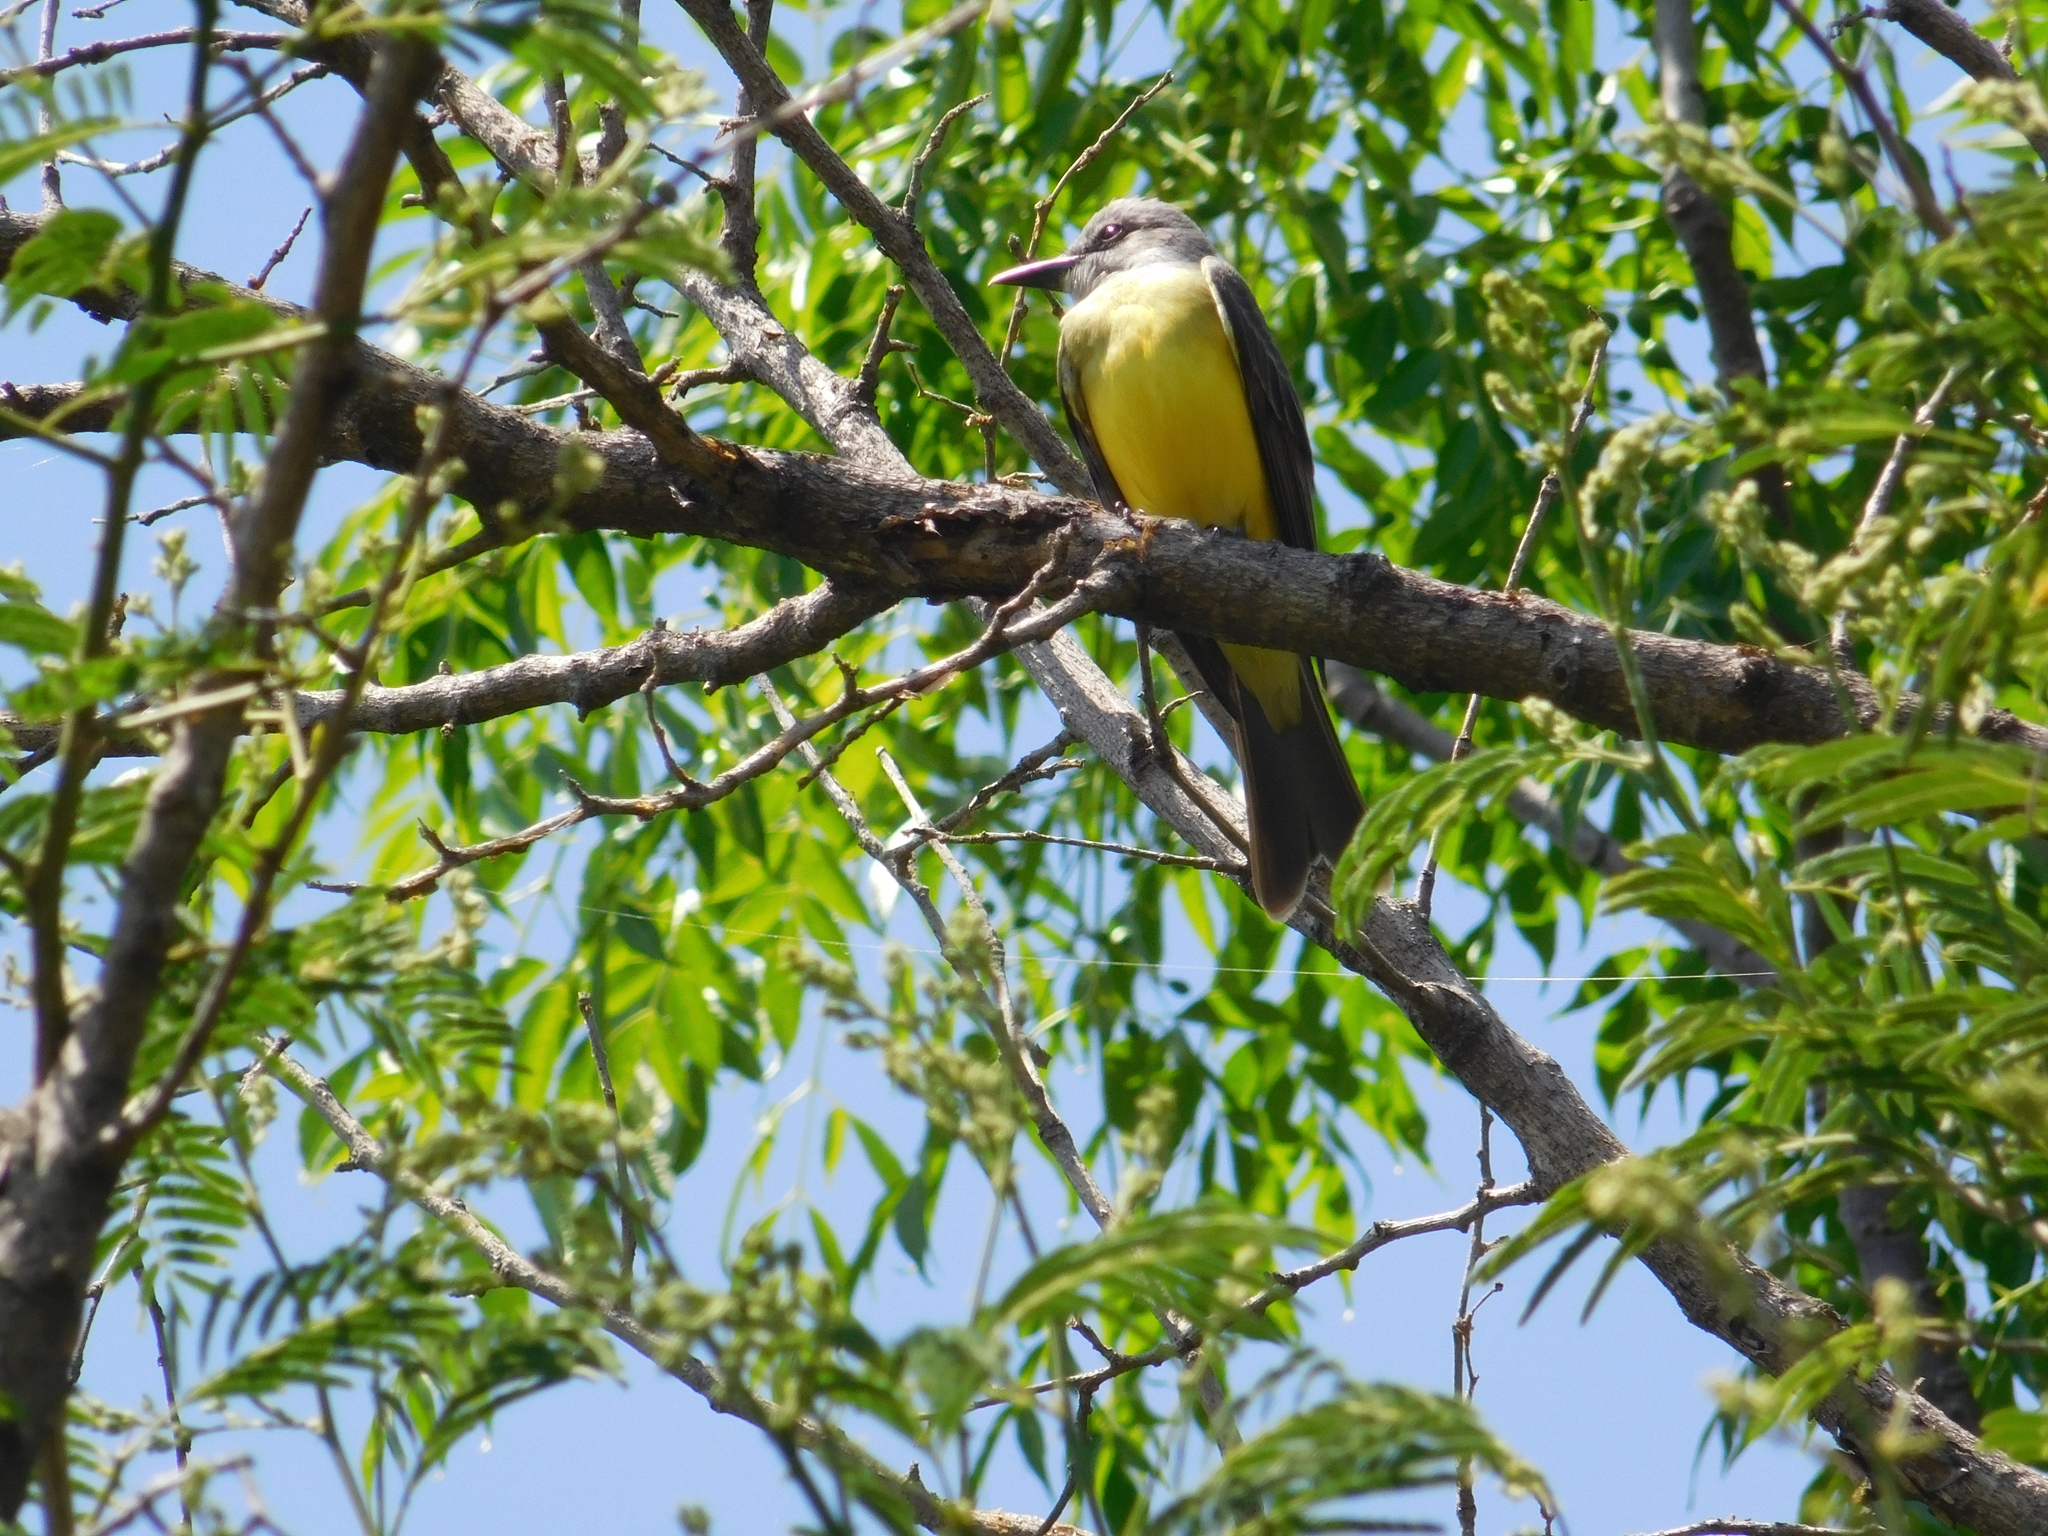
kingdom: Animalia
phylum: Chordata
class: Aves
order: Passeriformes
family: Tyrannidae
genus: Tyrannus
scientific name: Tyrannus melancholicus
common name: Tropical kingbird
